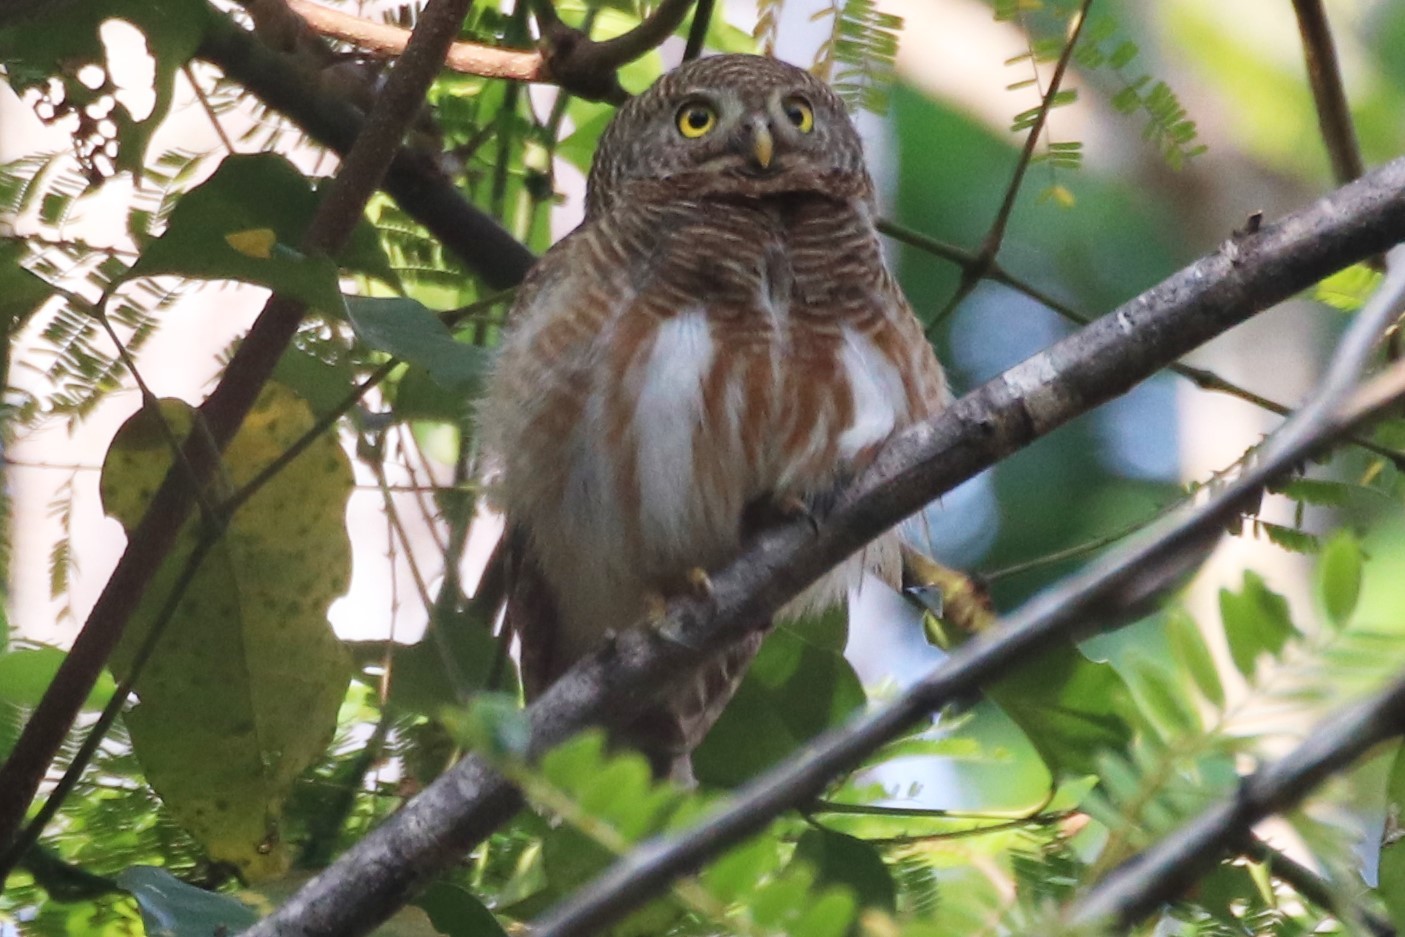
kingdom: Animalia
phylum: Chordata
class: Aves
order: Strigiformes
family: Strigidae
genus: Glaucidium
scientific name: Glaucidium cuculoides
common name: Asian barred owlet
